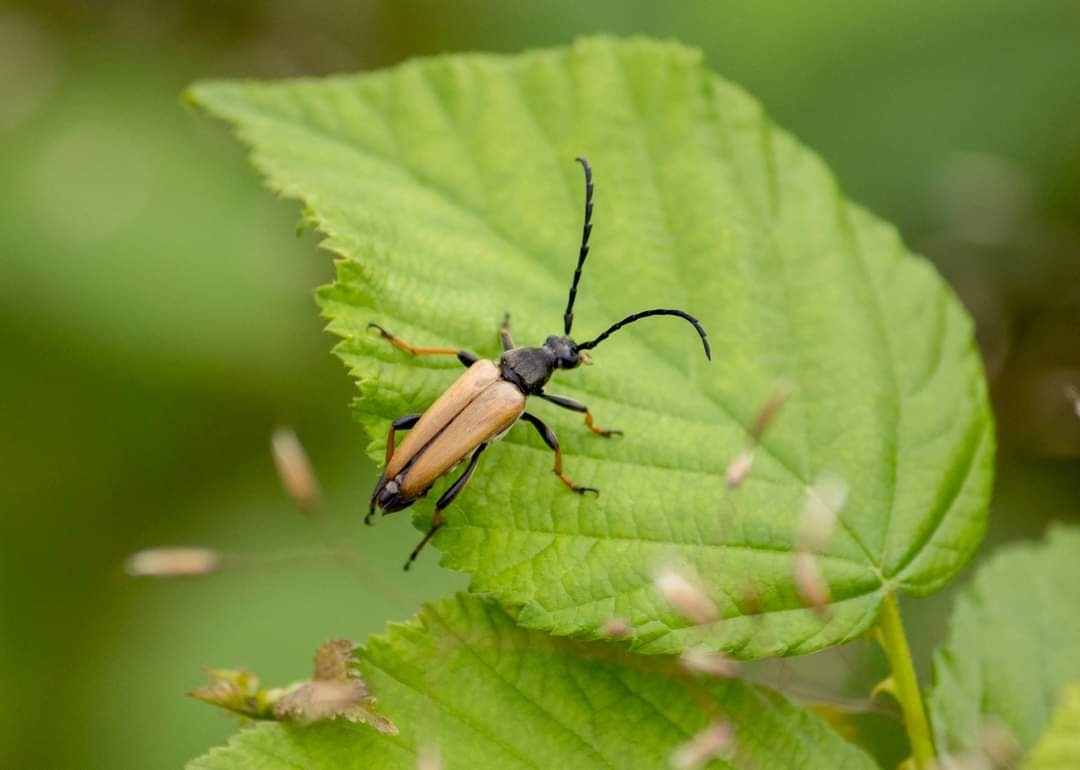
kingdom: Animalia
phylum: Arthropoda
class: Insecta
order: Coleoptera
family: Cerambycidae
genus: Stictoleptura
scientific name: Stictoleptura rubra
